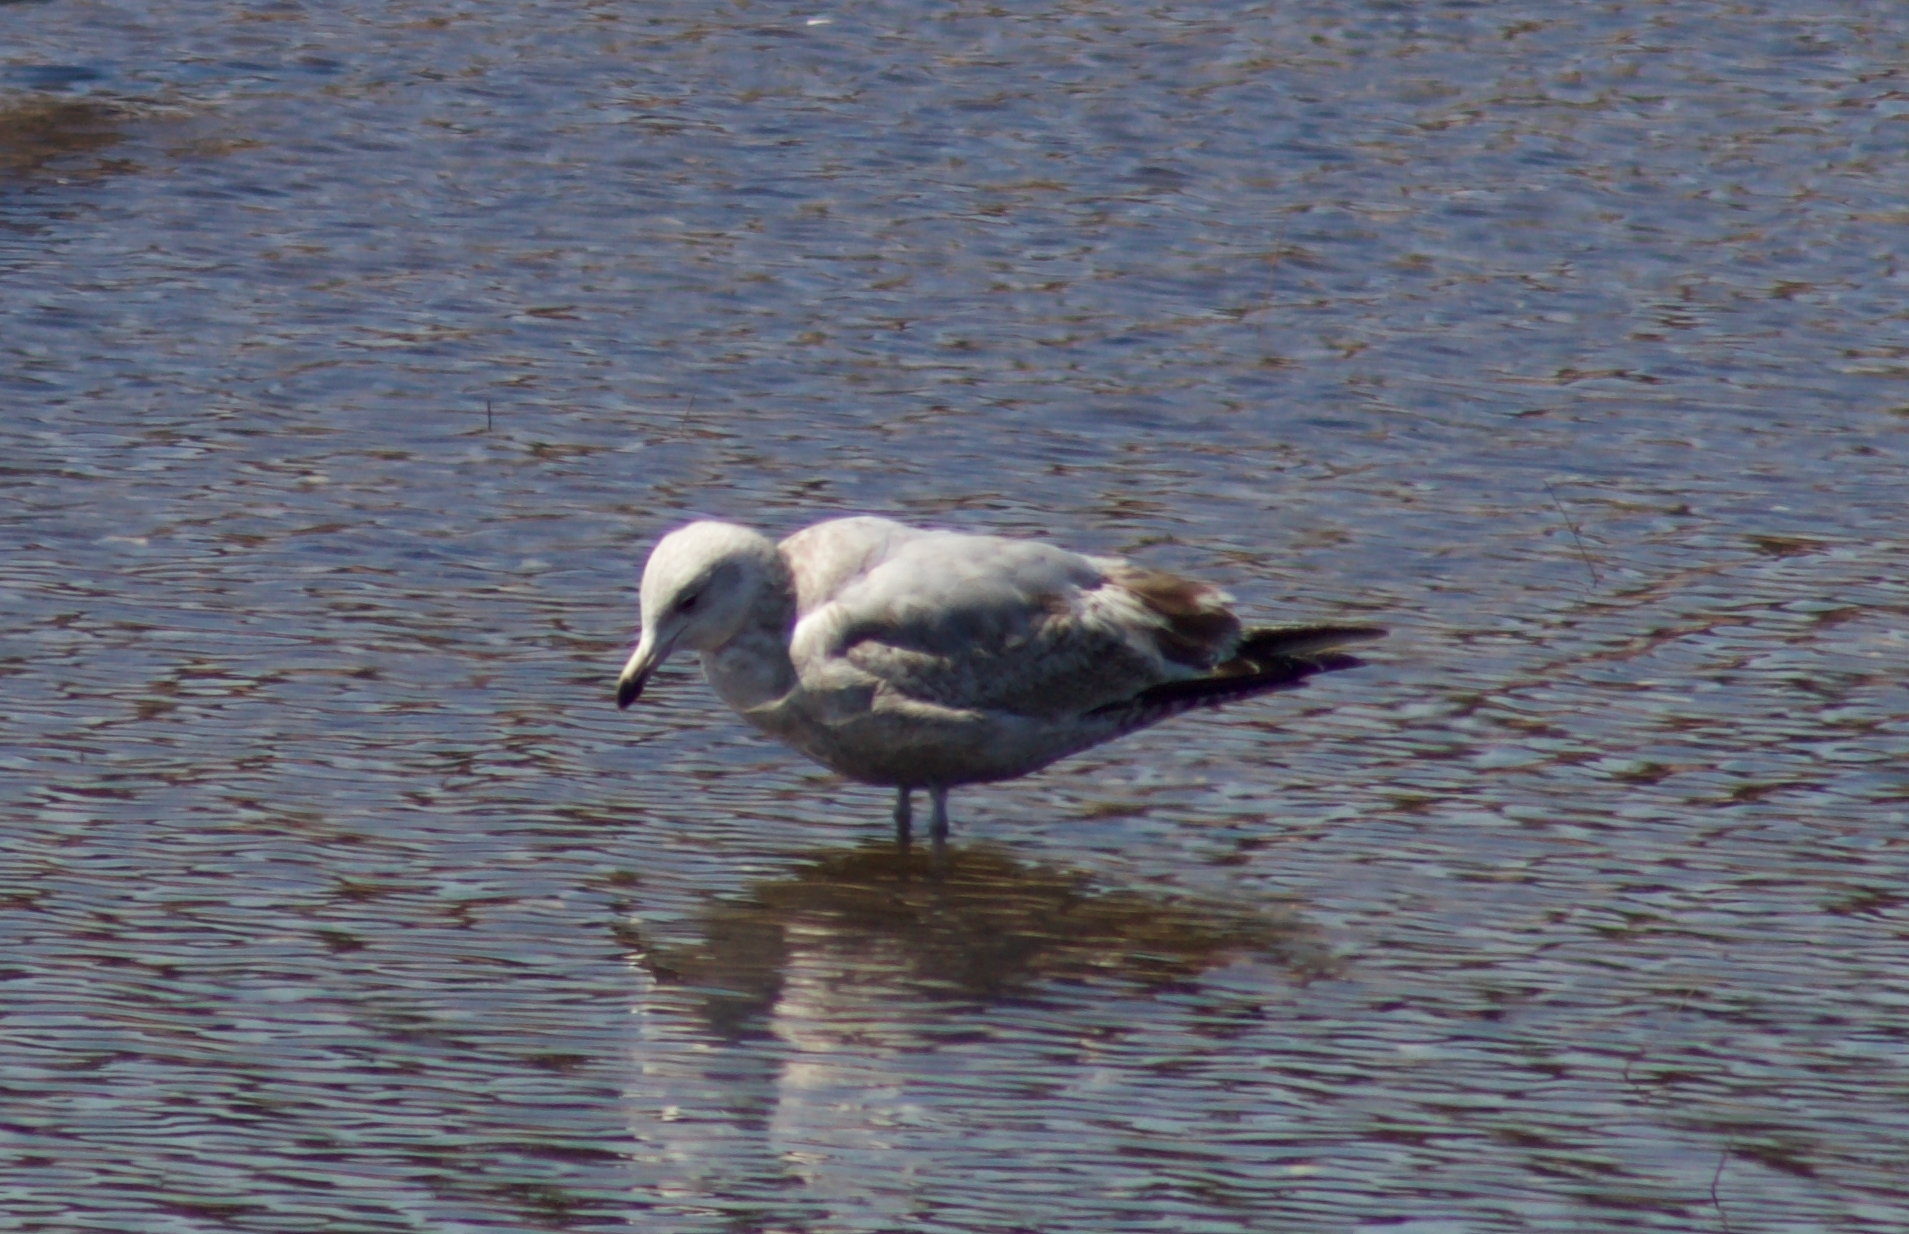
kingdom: Animalia
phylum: Chordata
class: Aves
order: Charadriiformes
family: Laridae
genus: Larus
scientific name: Larus argentatus
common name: Herring gull
